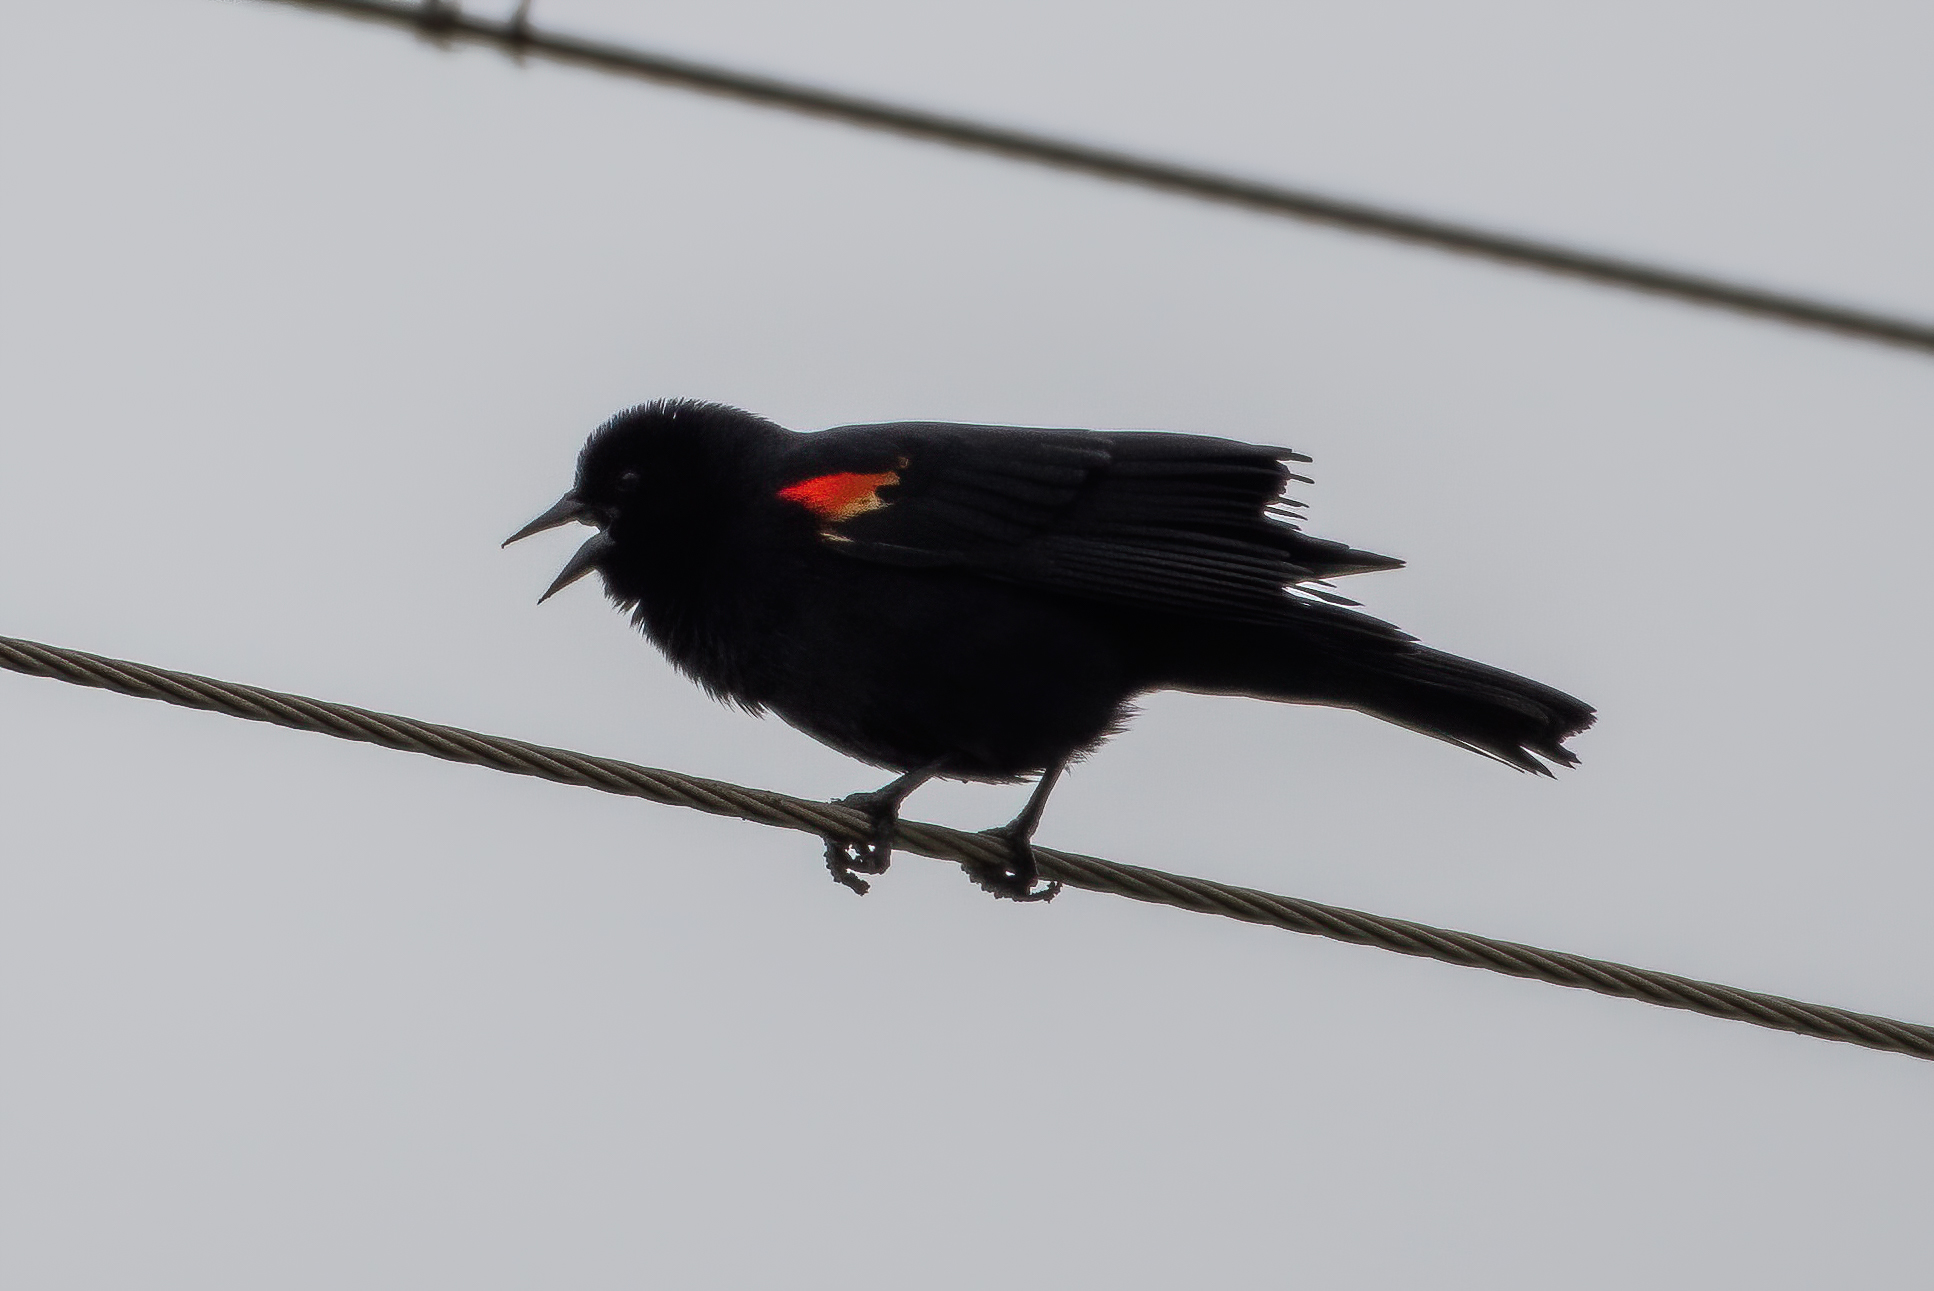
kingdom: Animalia
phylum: Chordata
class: Aves
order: Passeriformes
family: Icteridae
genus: Agelaius
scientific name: Agelaius phoeniceus
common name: Red-winged blackbird
